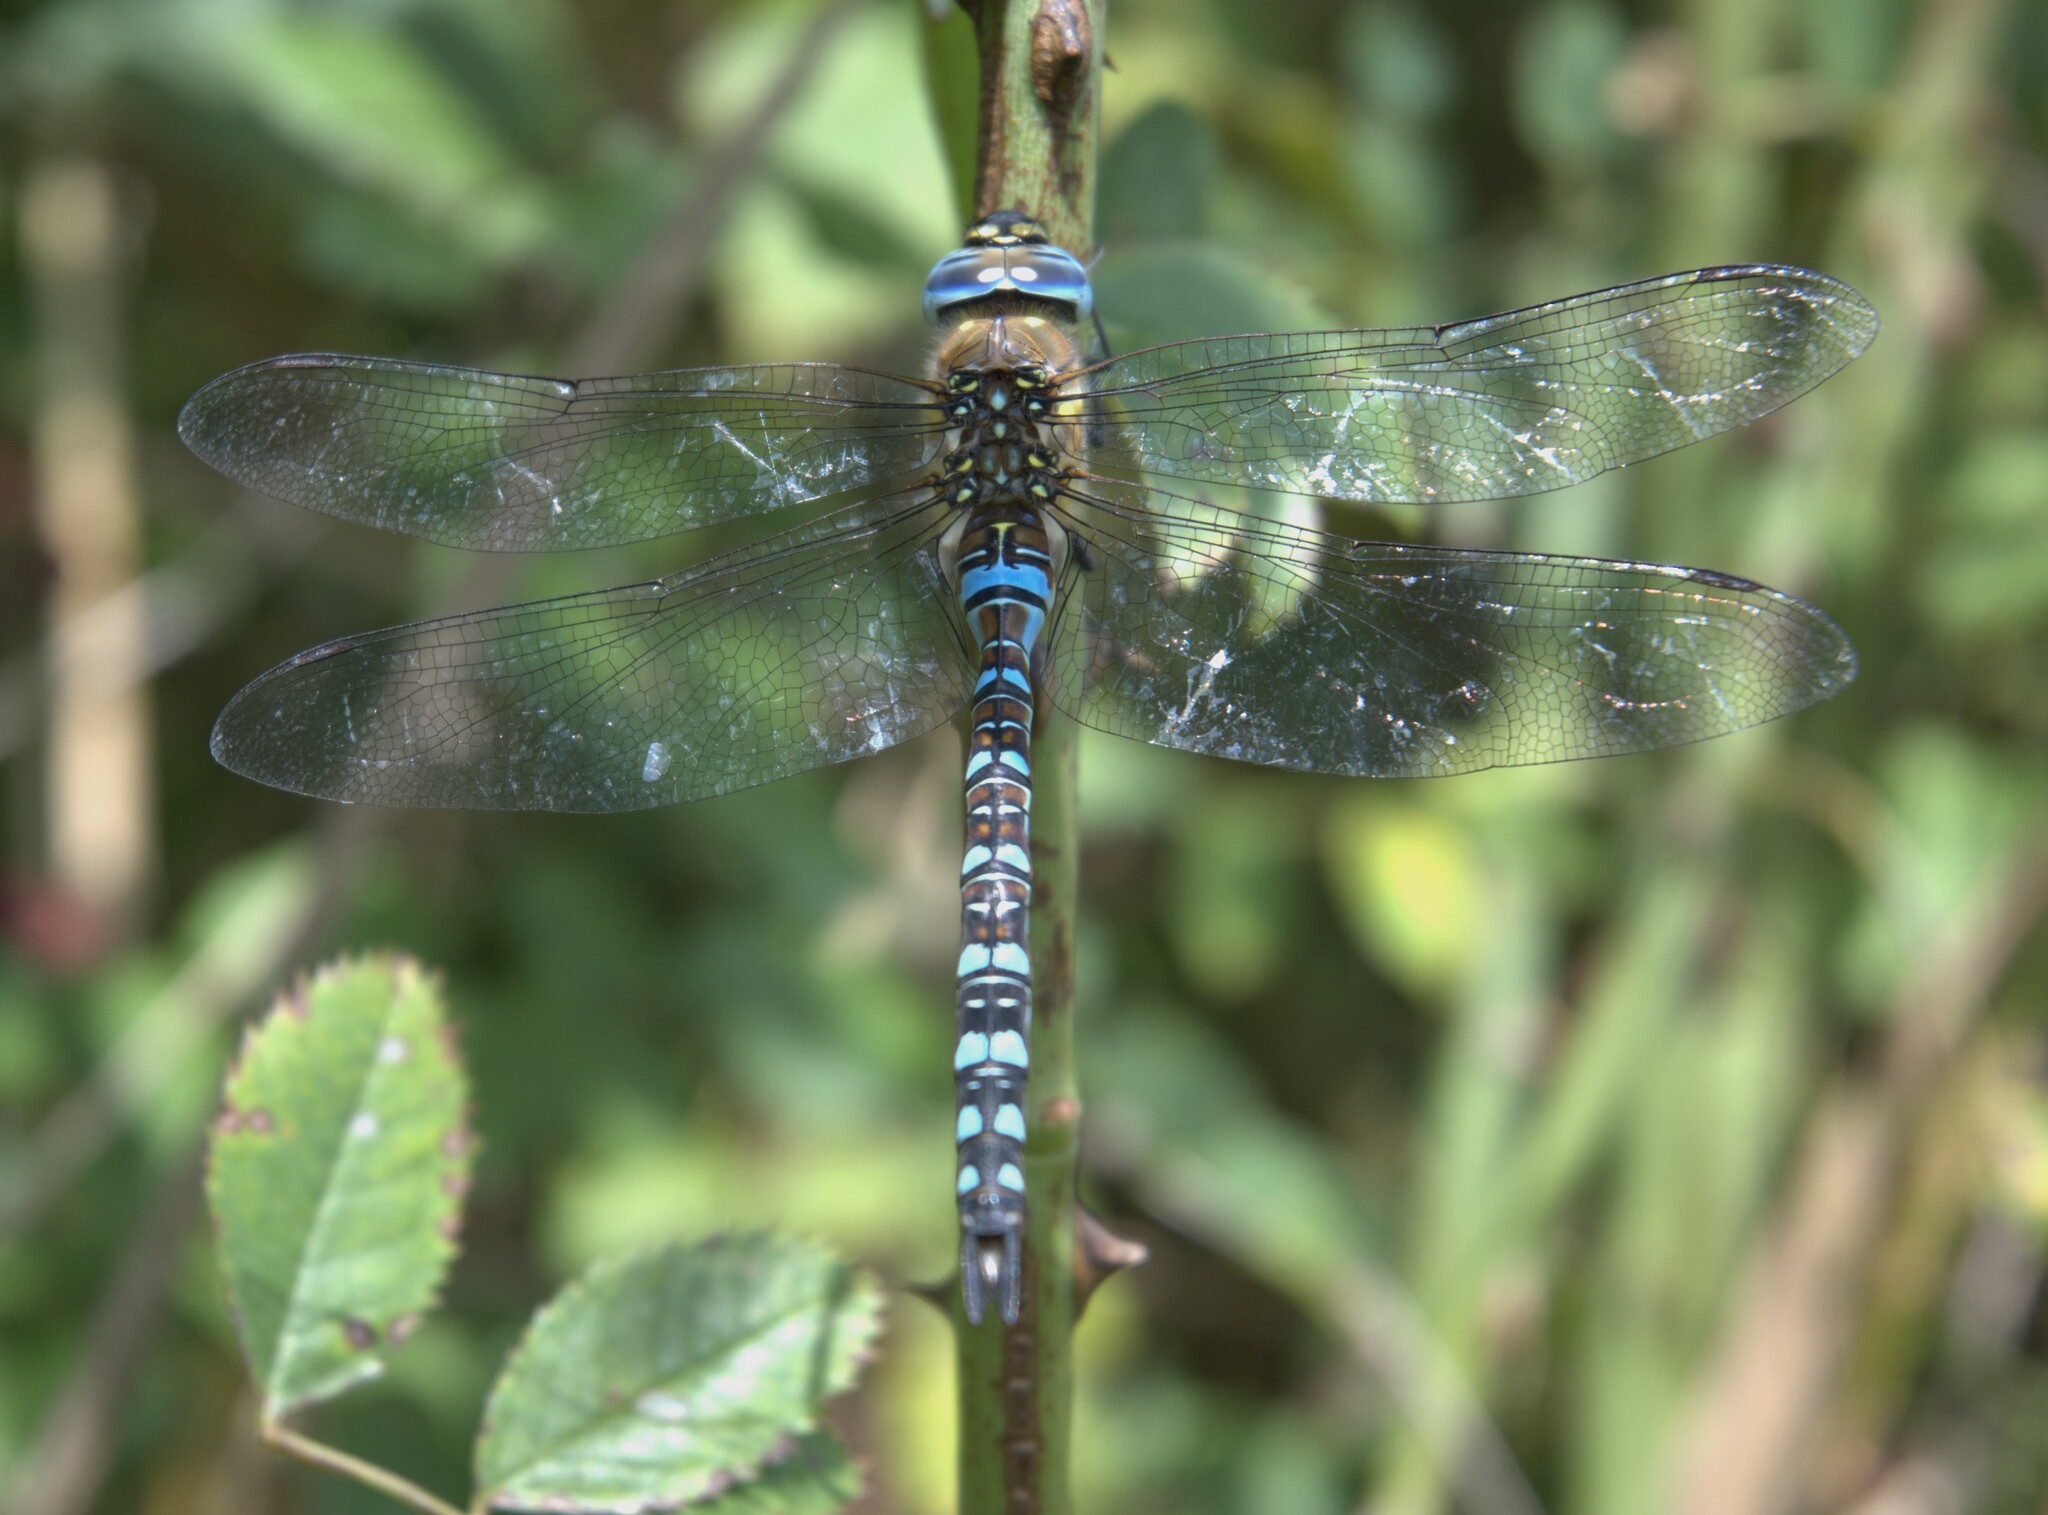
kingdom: Animalia
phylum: Arthropoda
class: Insecta
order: Odonata
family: Aeshnidae
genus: Aeshna
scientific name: Aeshna mixta
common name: Migrant hawker
